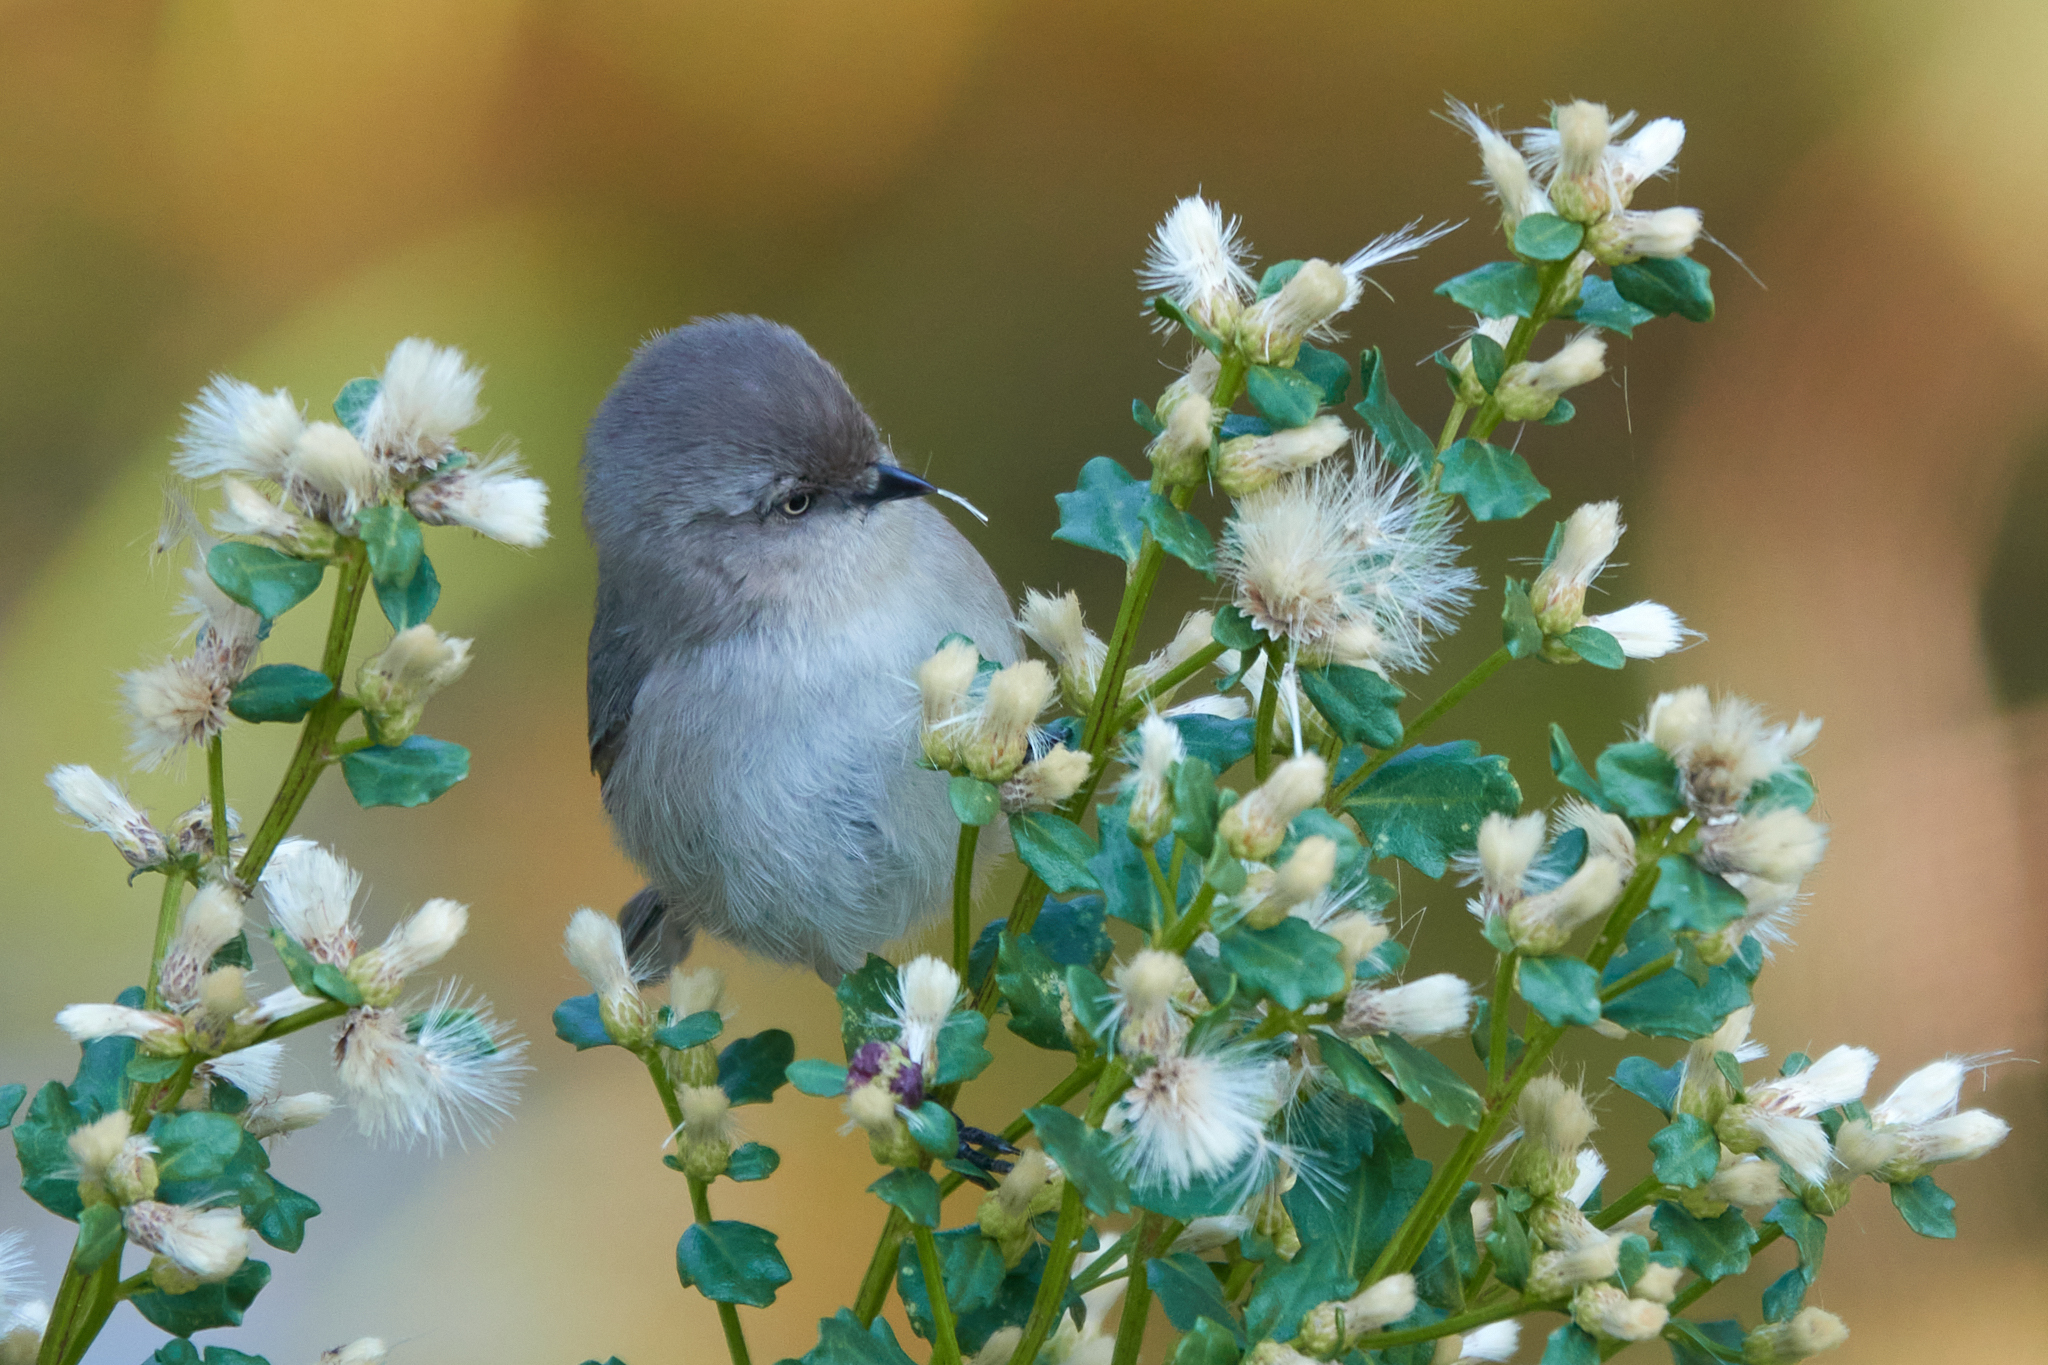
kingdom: Animalia
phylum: Chordata
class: Aves
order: Passeriformes
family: Aegithalidae
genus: Psaltriparus
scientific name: Psaltriparus minimus
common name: American bushtit
